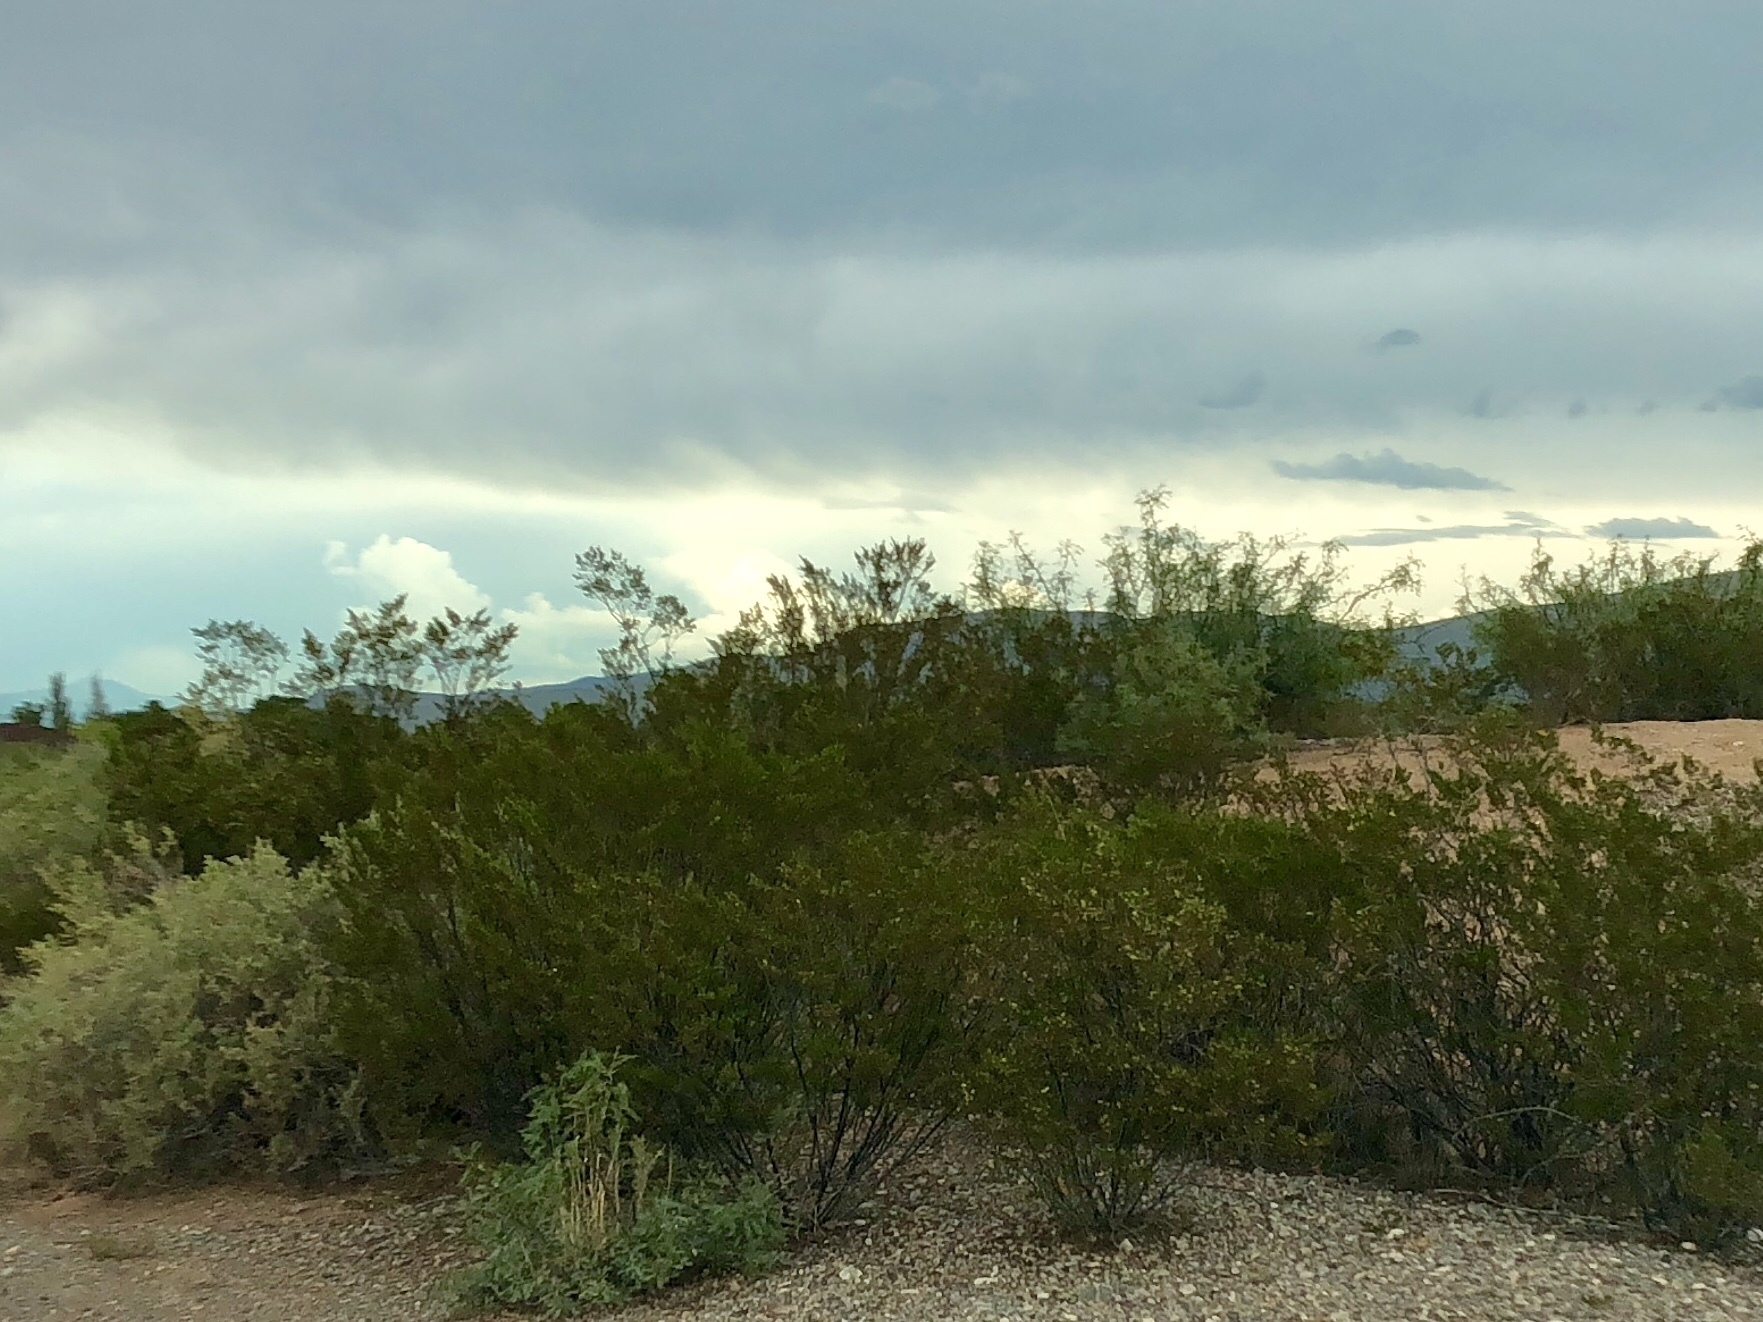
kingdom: Plantae
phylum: Tracheophyta
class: Magnoliopsida
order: Zygophyllales
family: Zygophyllaceae
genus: Larrea
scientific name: Larrea tridentata
